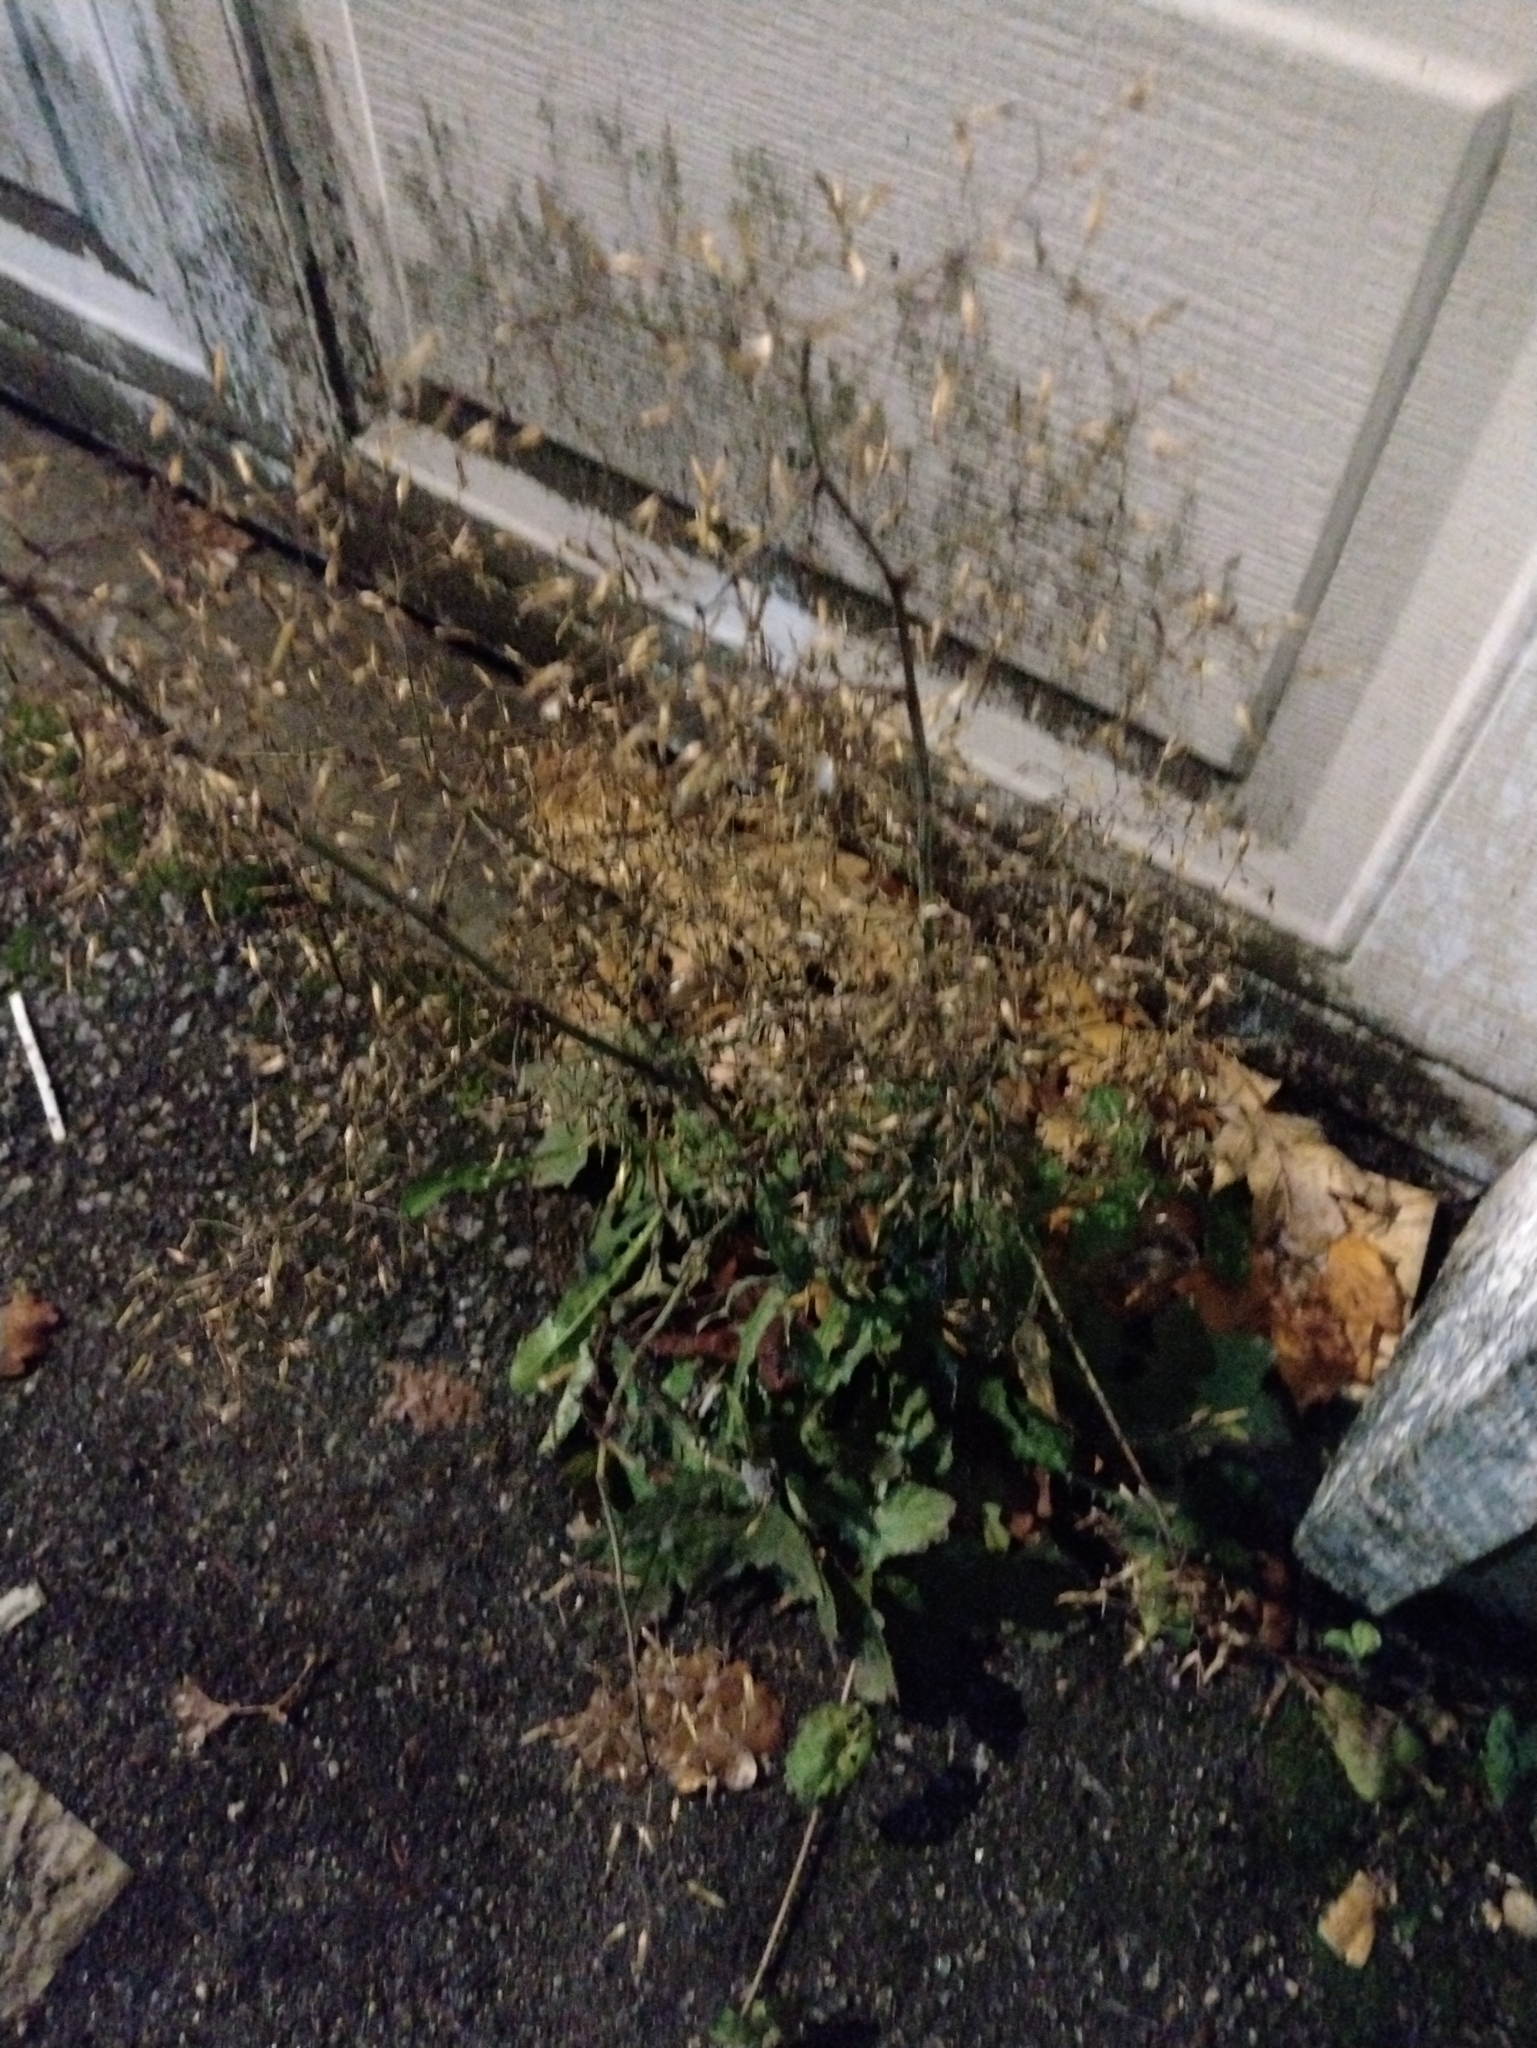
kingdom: Plantae
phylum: Tracheophyta
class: Magnoliopsida
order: Asterales
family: Asteraceae
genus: Mycelis
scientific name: Mycelis muralis
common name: Wall lettuce
